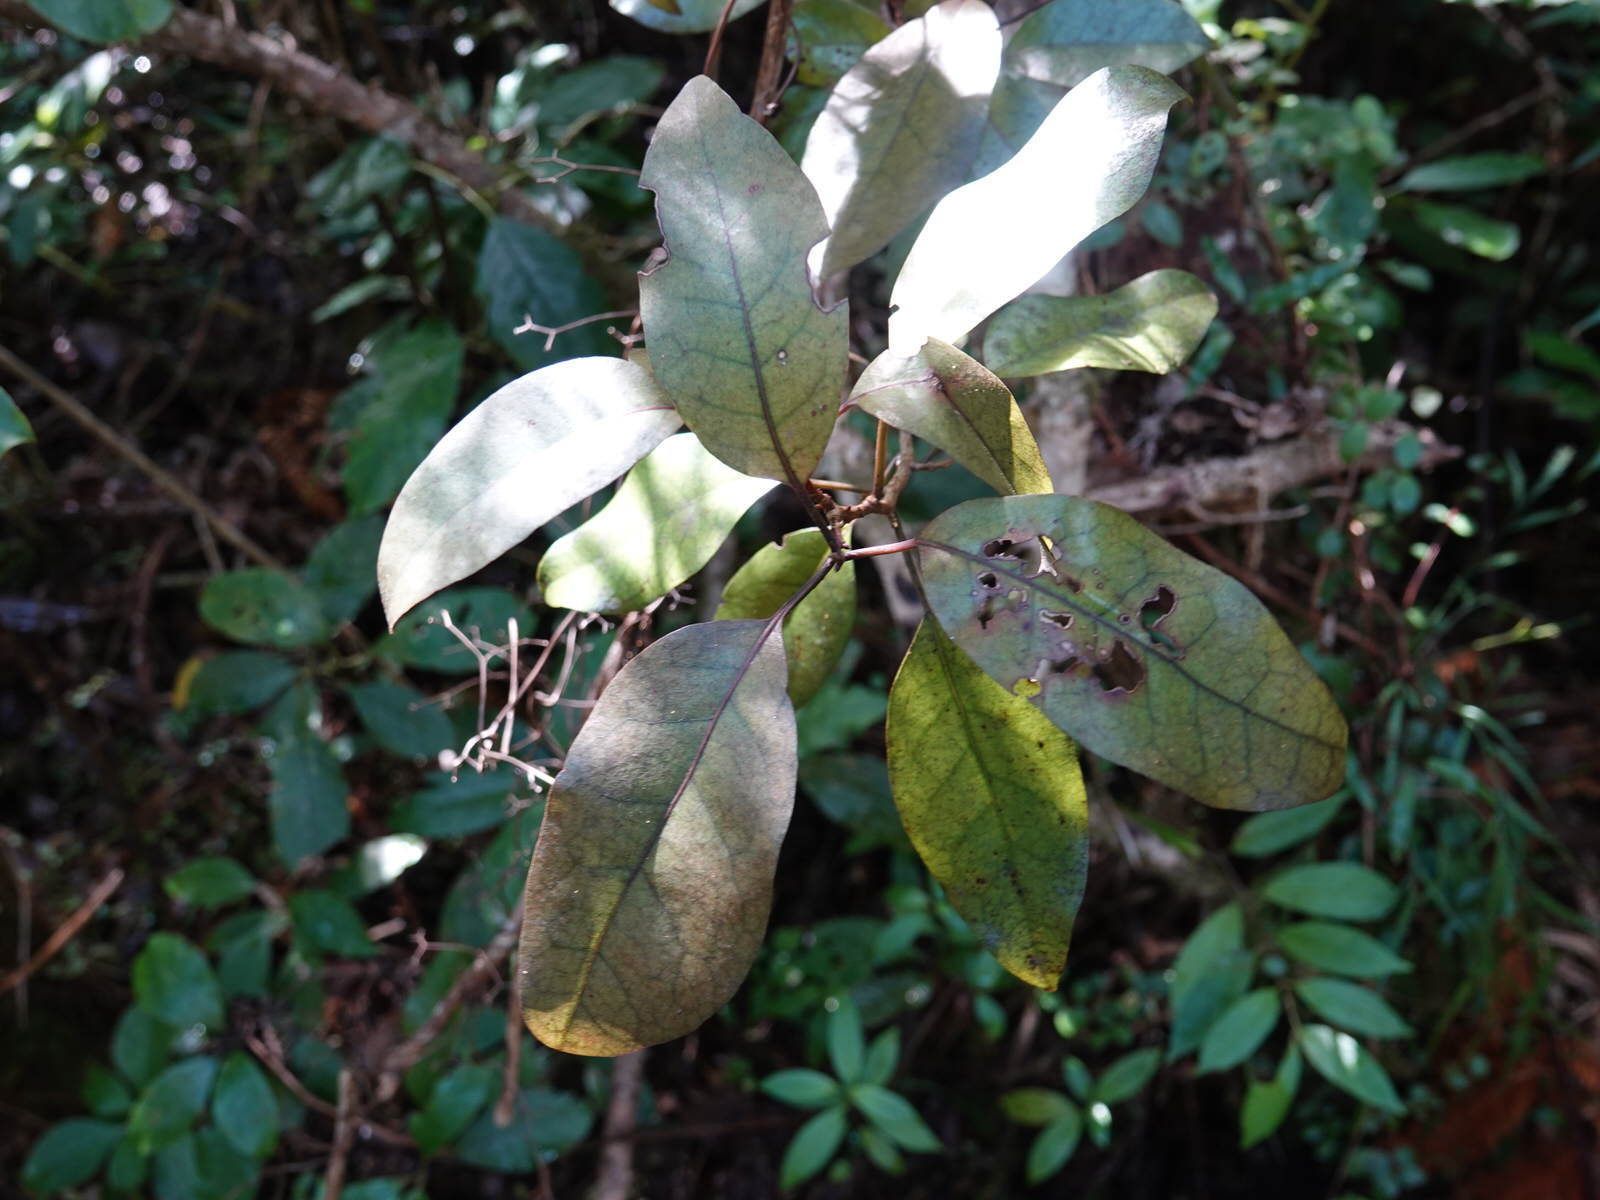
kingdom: Plantae
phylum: Tracheophyta
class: Magnoliopsida
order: Laurales
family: Lauraceae
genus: Litsea
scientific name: Litsea calicaris
